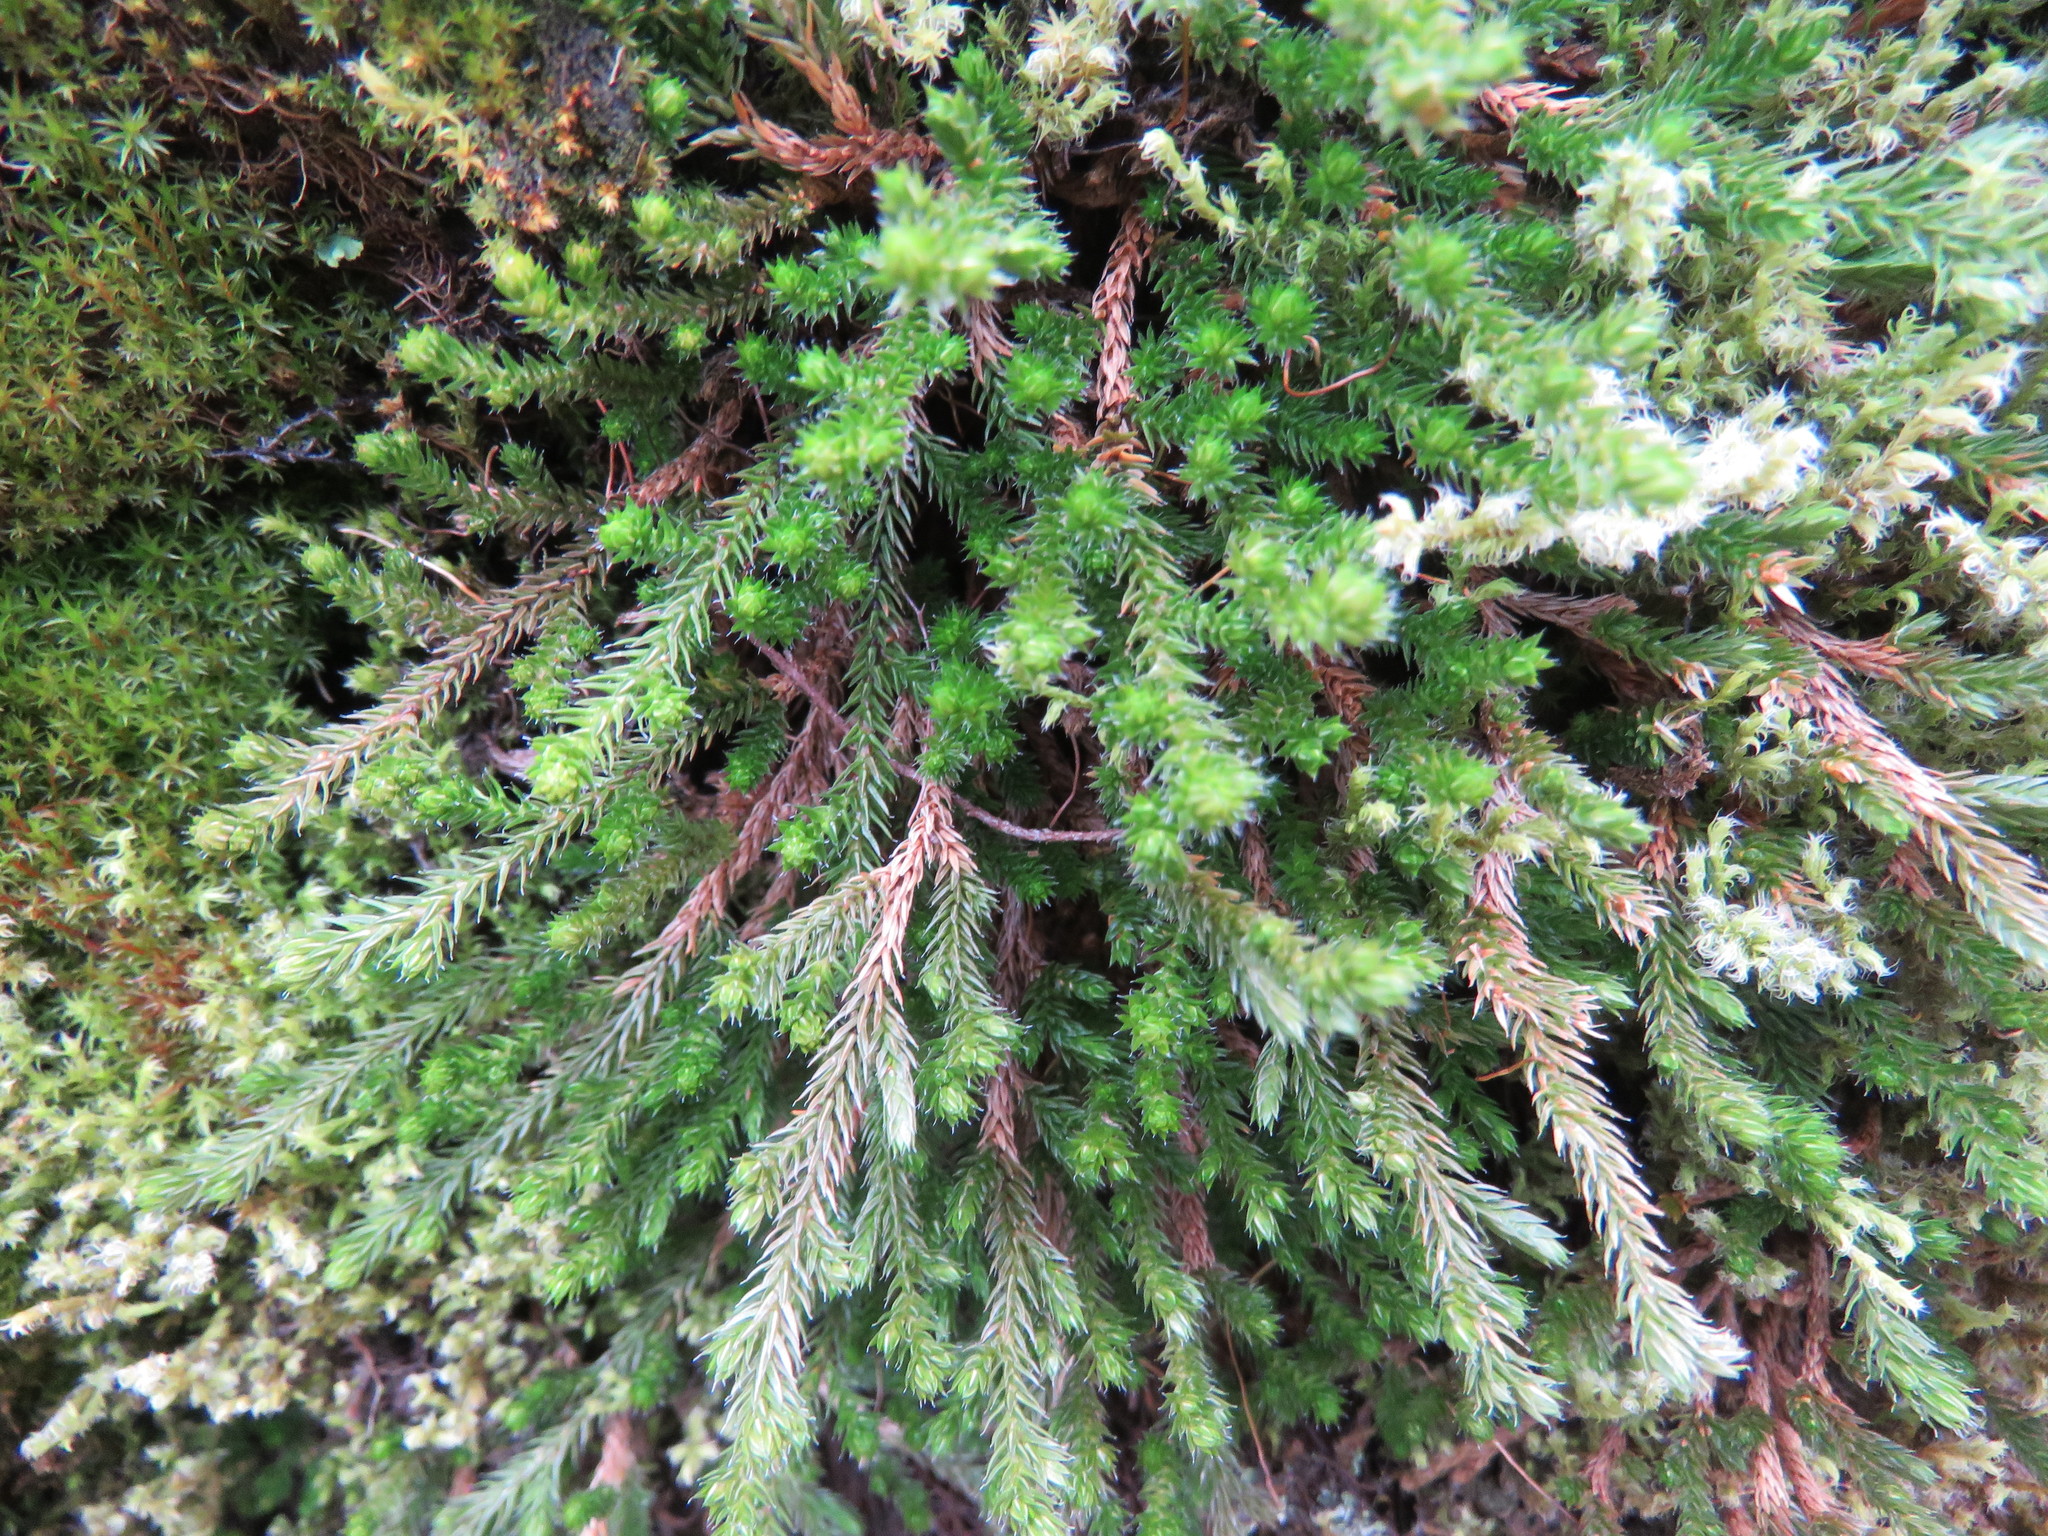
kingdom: Plantae
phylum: Tracheophyta
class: Lycopodiopsida
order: Selaginellales
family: Selaginellaceae
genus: Selaginella
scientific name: Selaginella wallacei
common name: Wallace's selaginella
